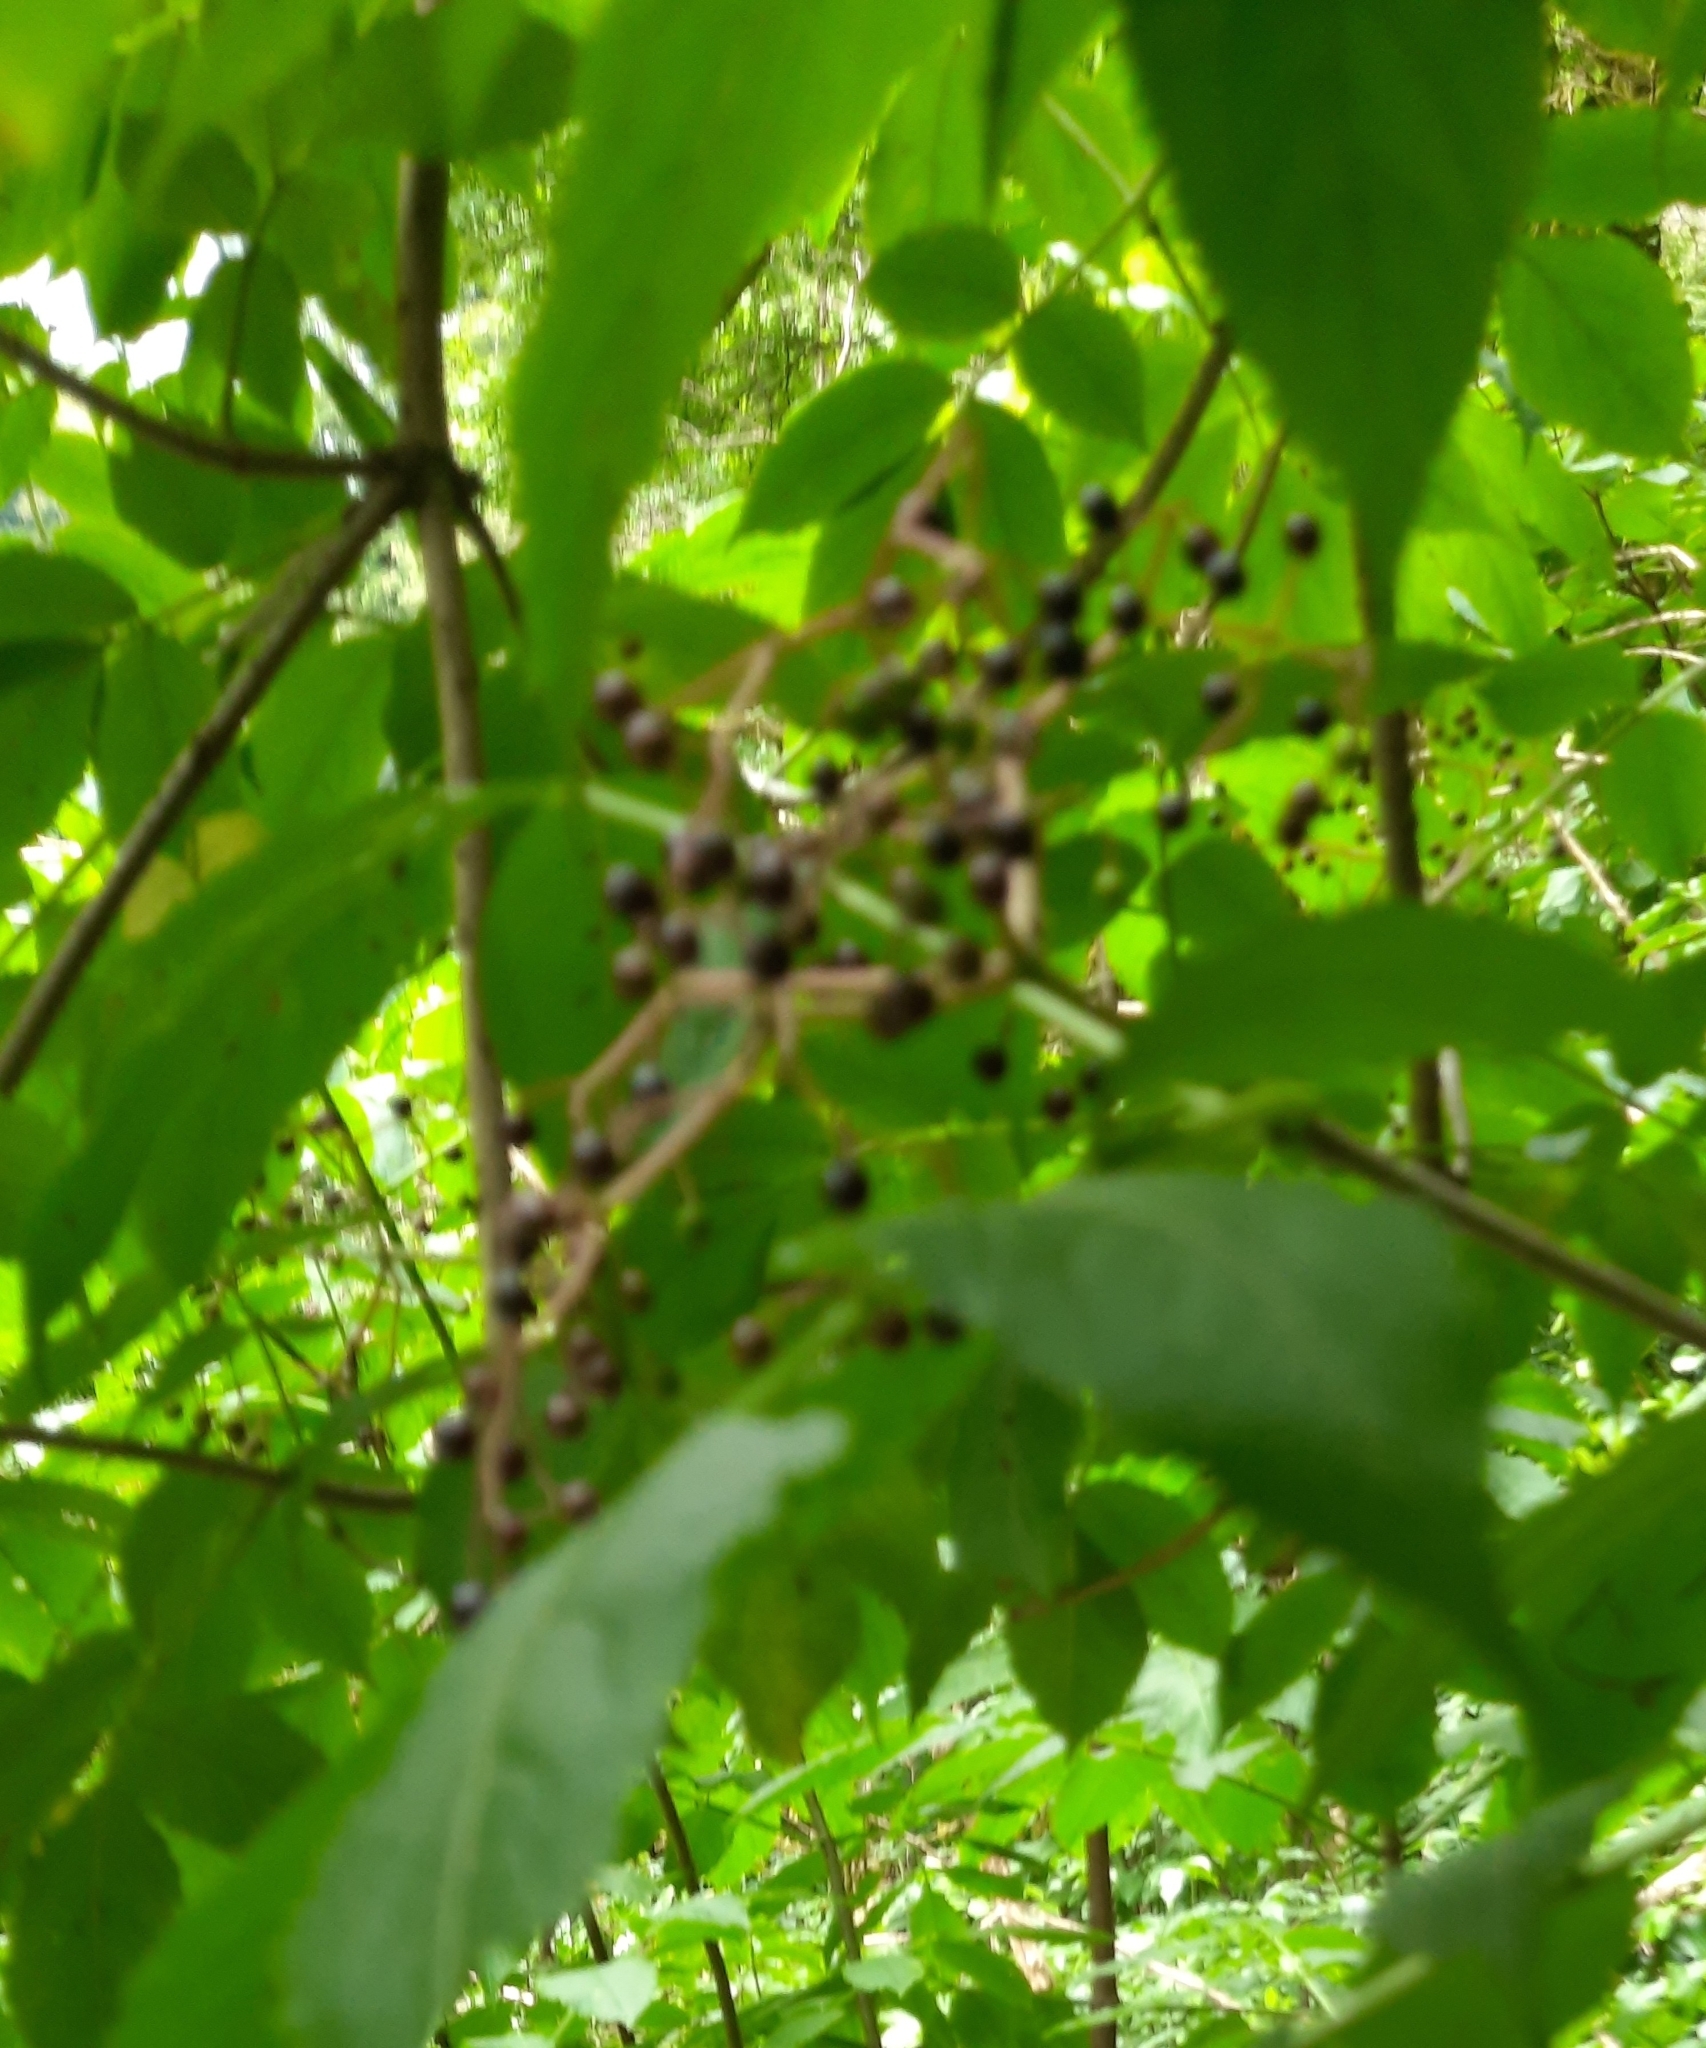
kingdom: Plantae
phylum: Tracheophyta
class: Magnoliopsida
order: Dipsacales
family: Viburnaceae
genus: Sambucus
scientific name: Sambucus nigra
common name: Elder
